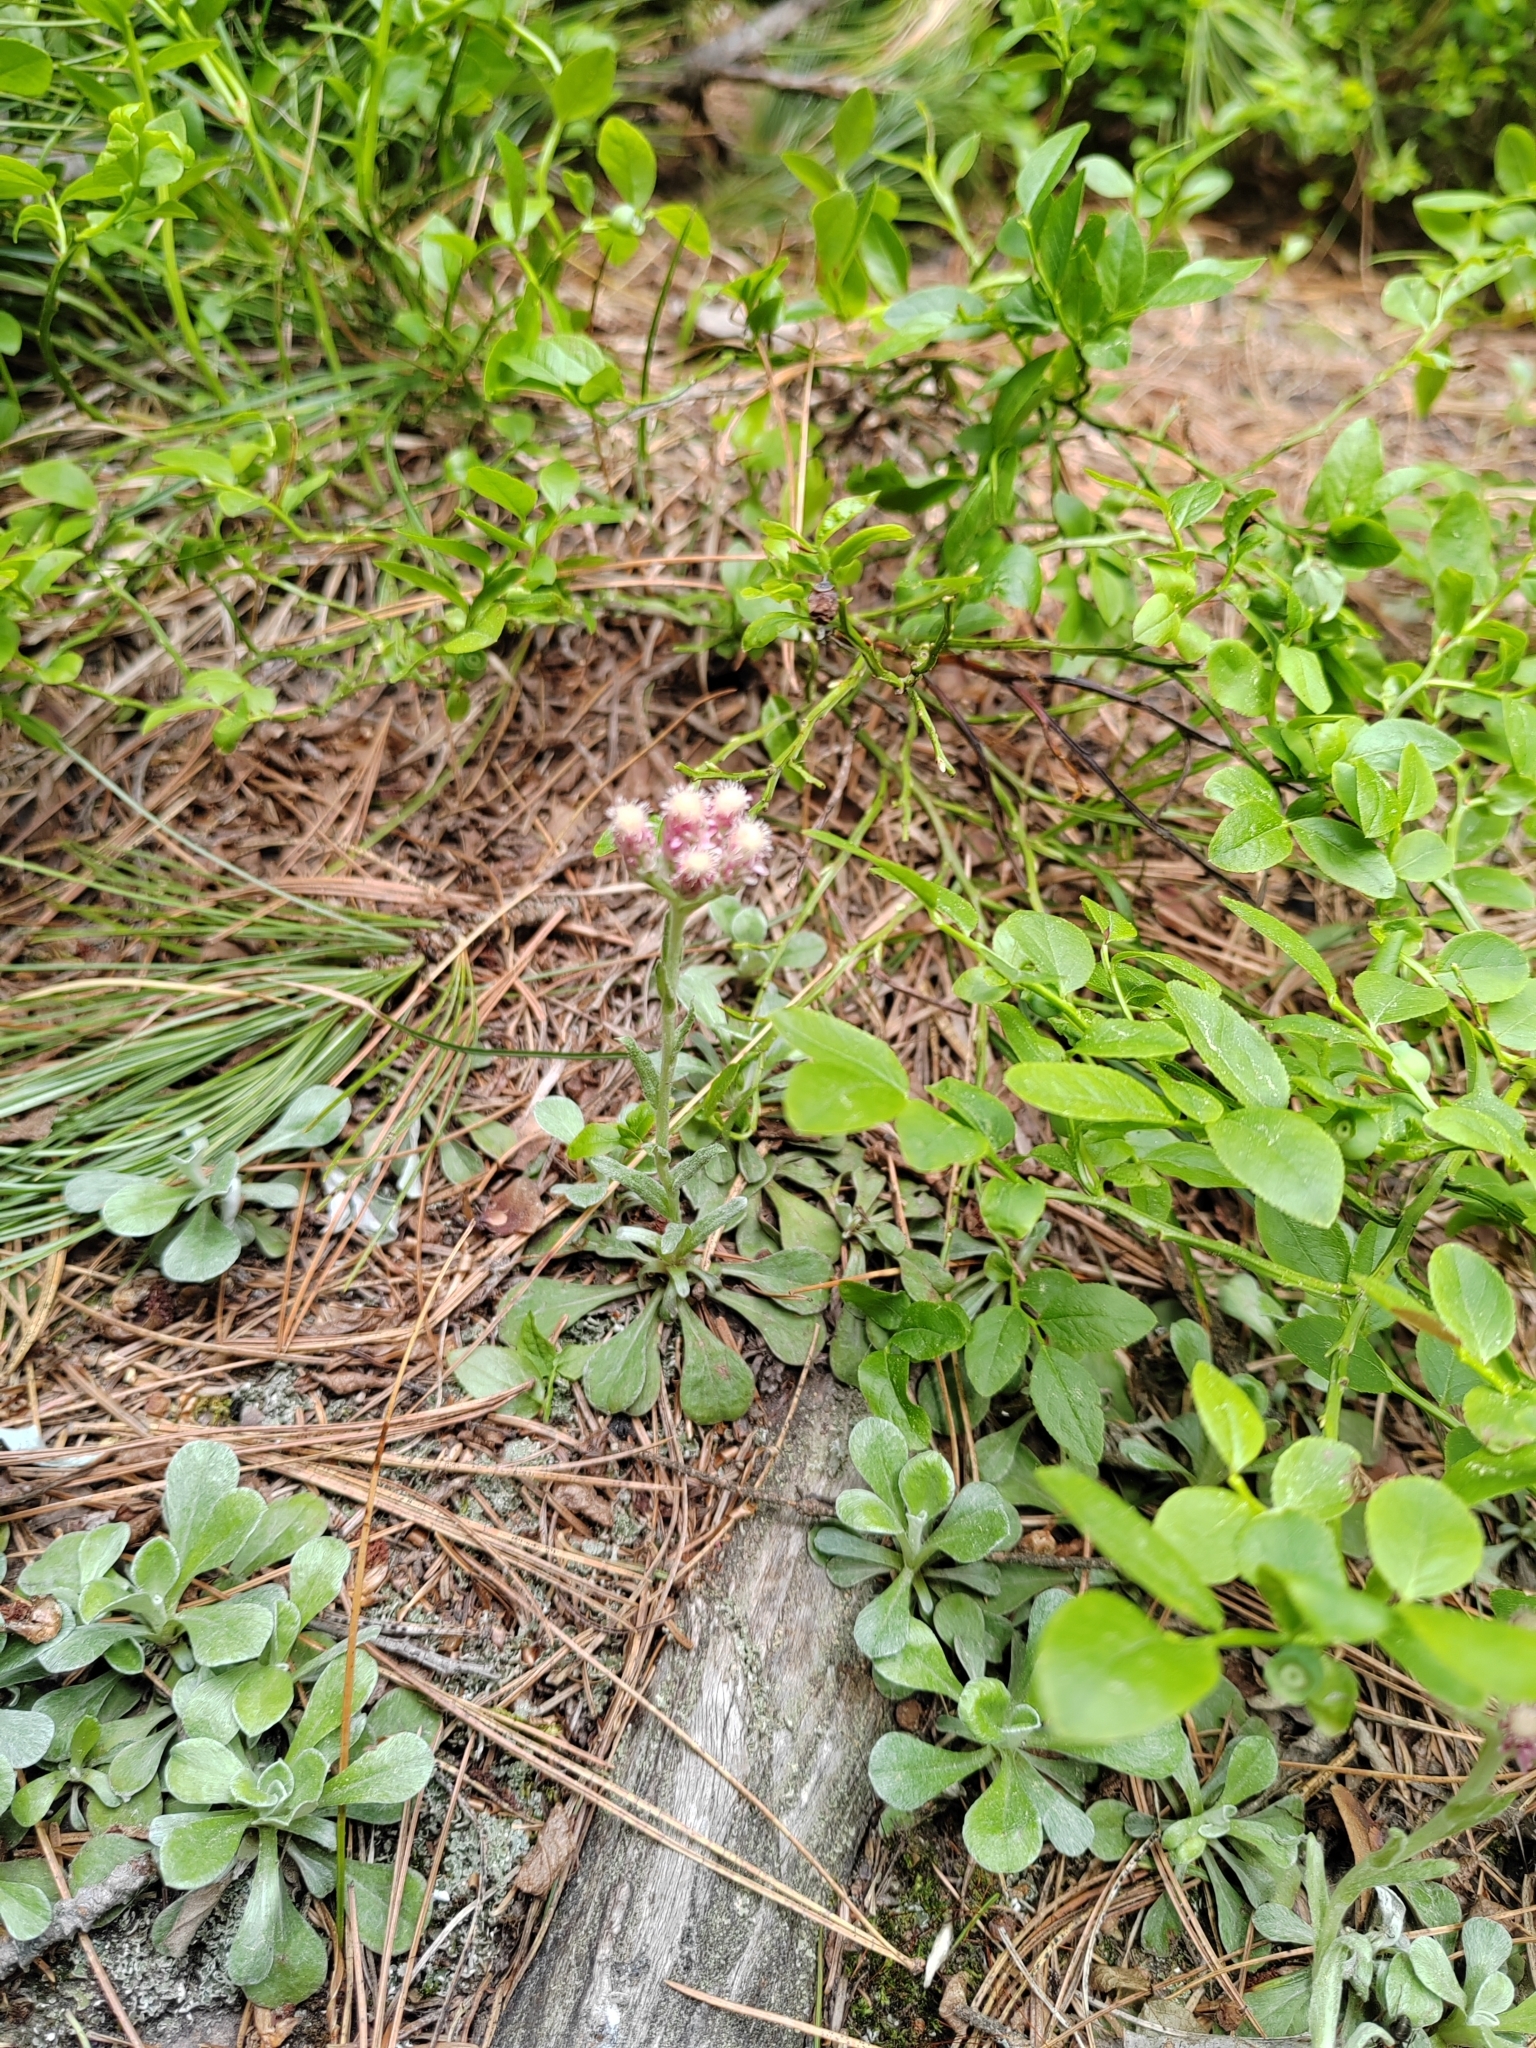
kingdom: Plantae
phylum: Tracheophyta
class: Magnoliopsida
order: Asterales
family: Asteraceae
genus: Antennaria
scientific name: Antennaria dioica
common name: Mountain everlasting
